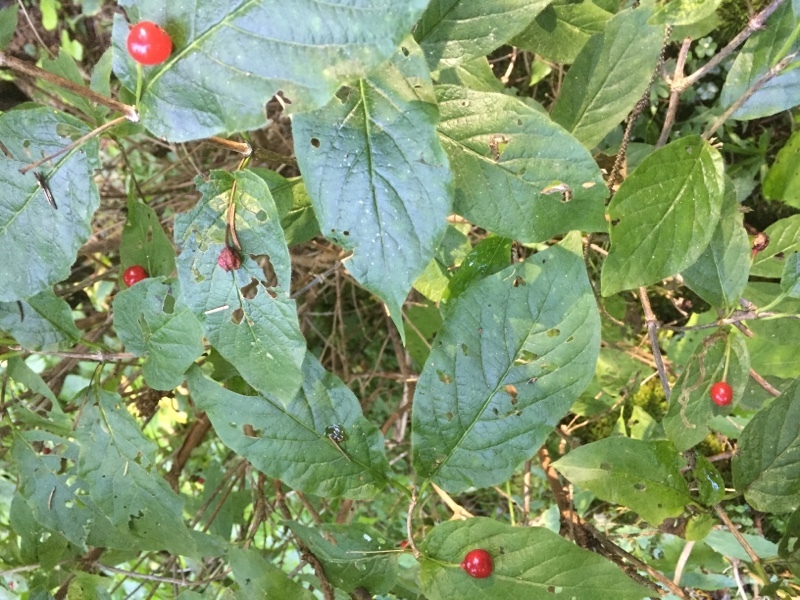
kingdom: Plantae
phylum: Tracheophyta
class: Magnoliopsida
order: Dipsacales
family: Caprifoliaceae
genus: Lonicera
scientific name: Lonicera alpigena
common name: Alpine honeysuckle
